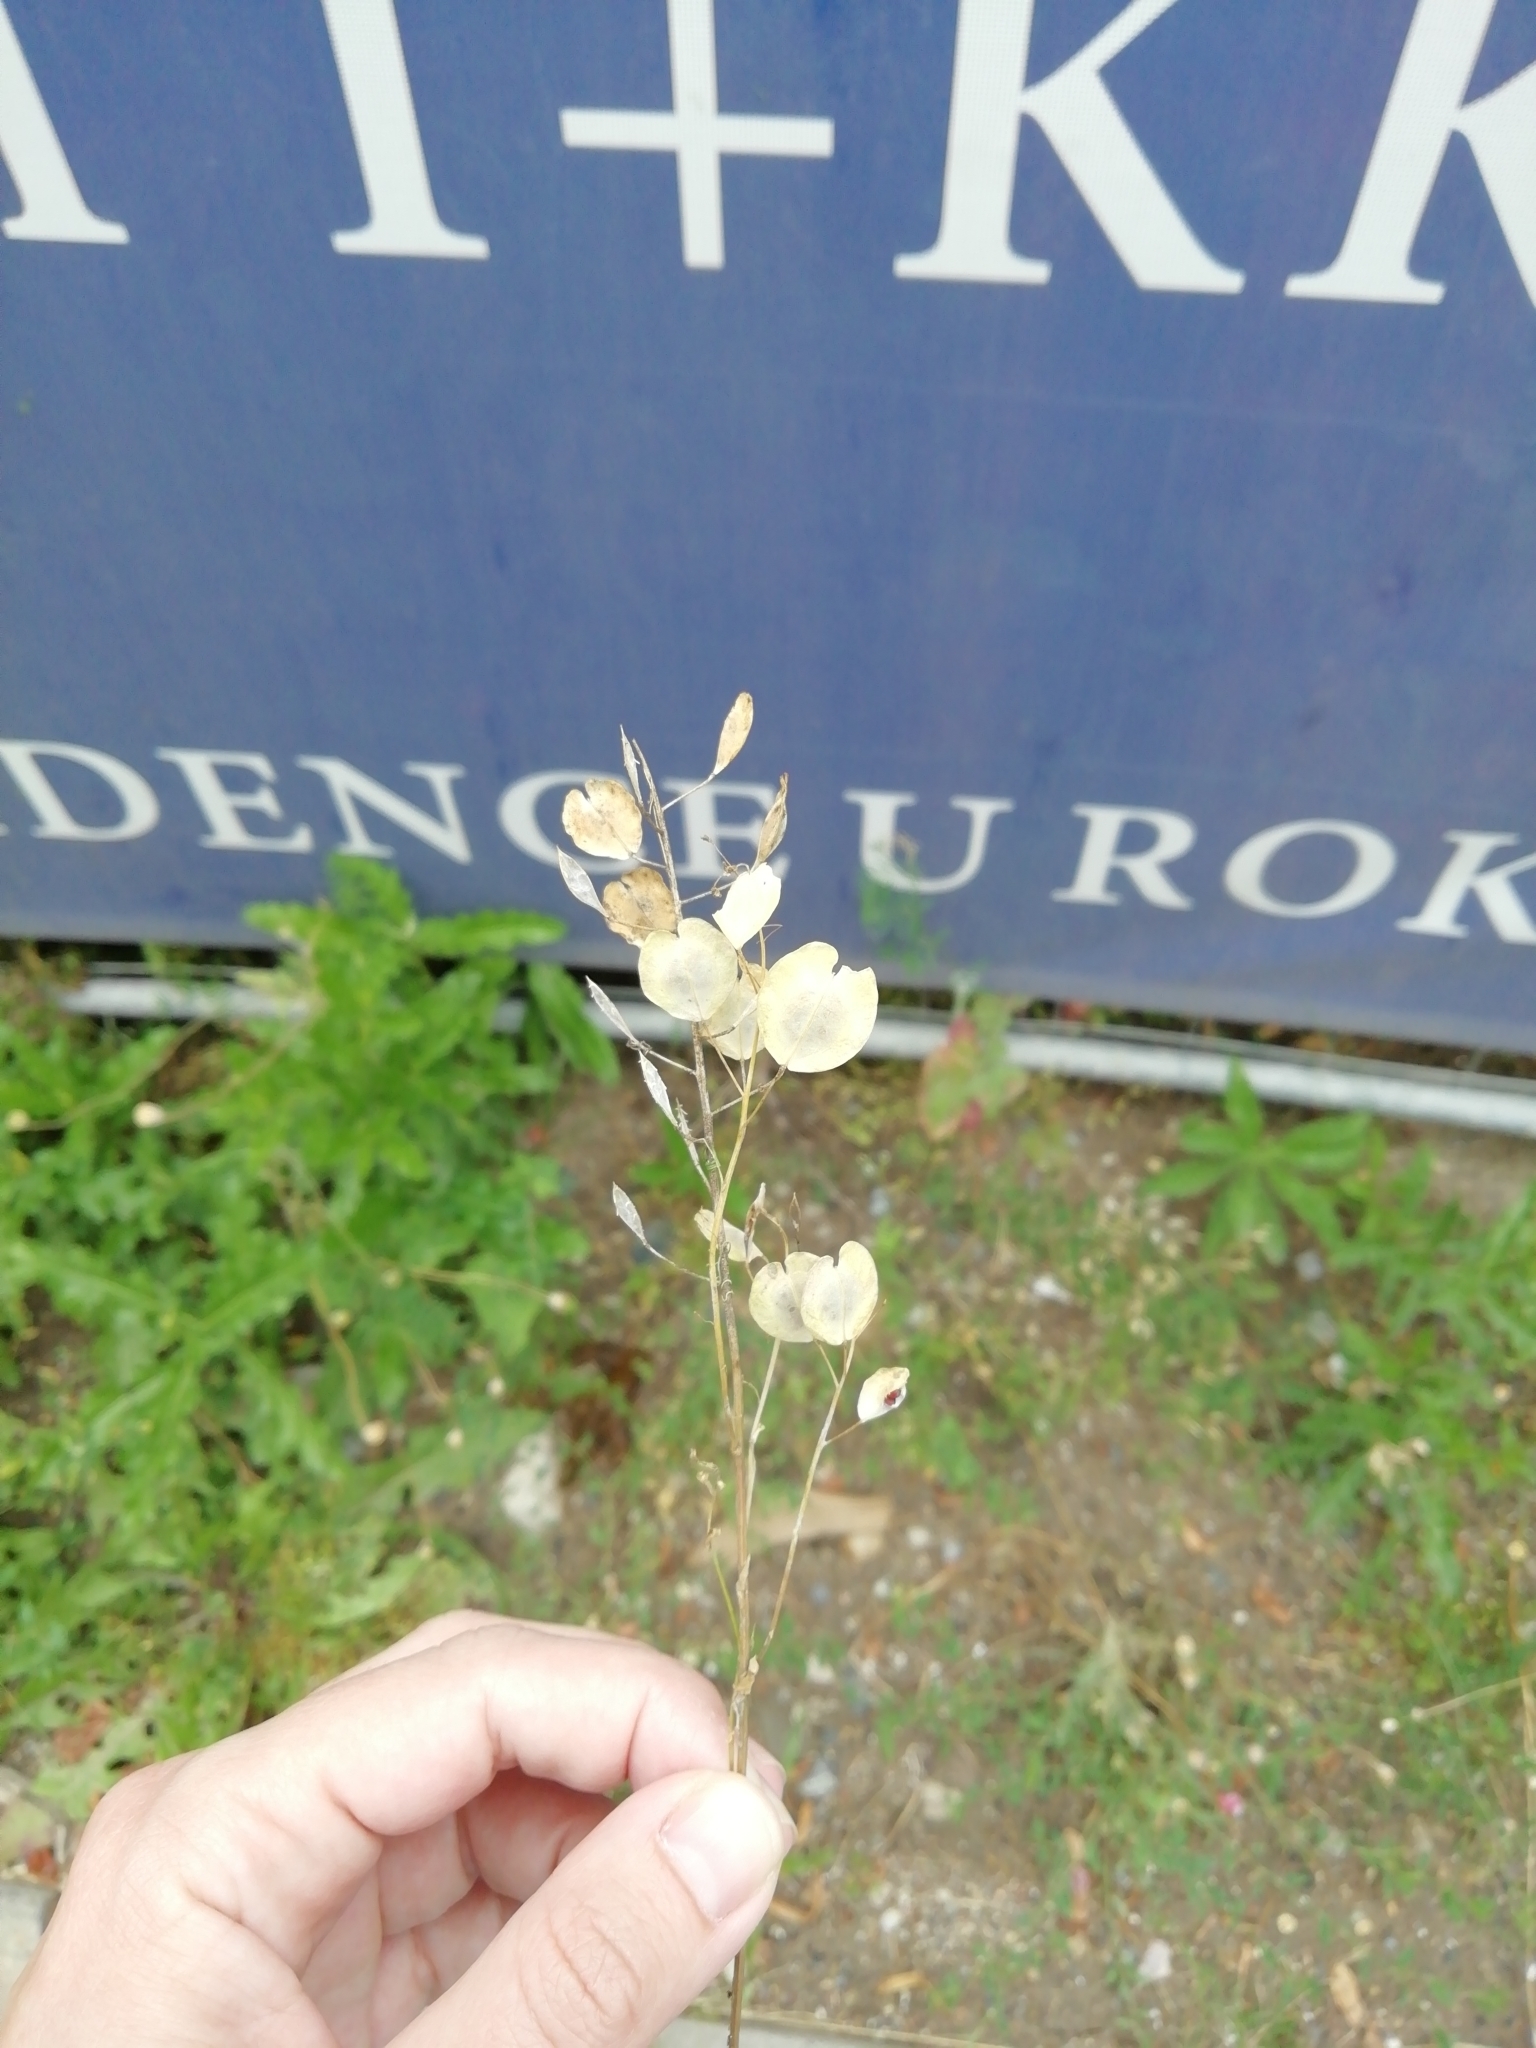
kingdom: Plantae
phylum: Tracheophyta
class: Magnoliopsida
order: Brassicales
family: Brassicaceae
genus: Thlaspi
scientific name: Thlaspi arvense
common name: Field pennycress
